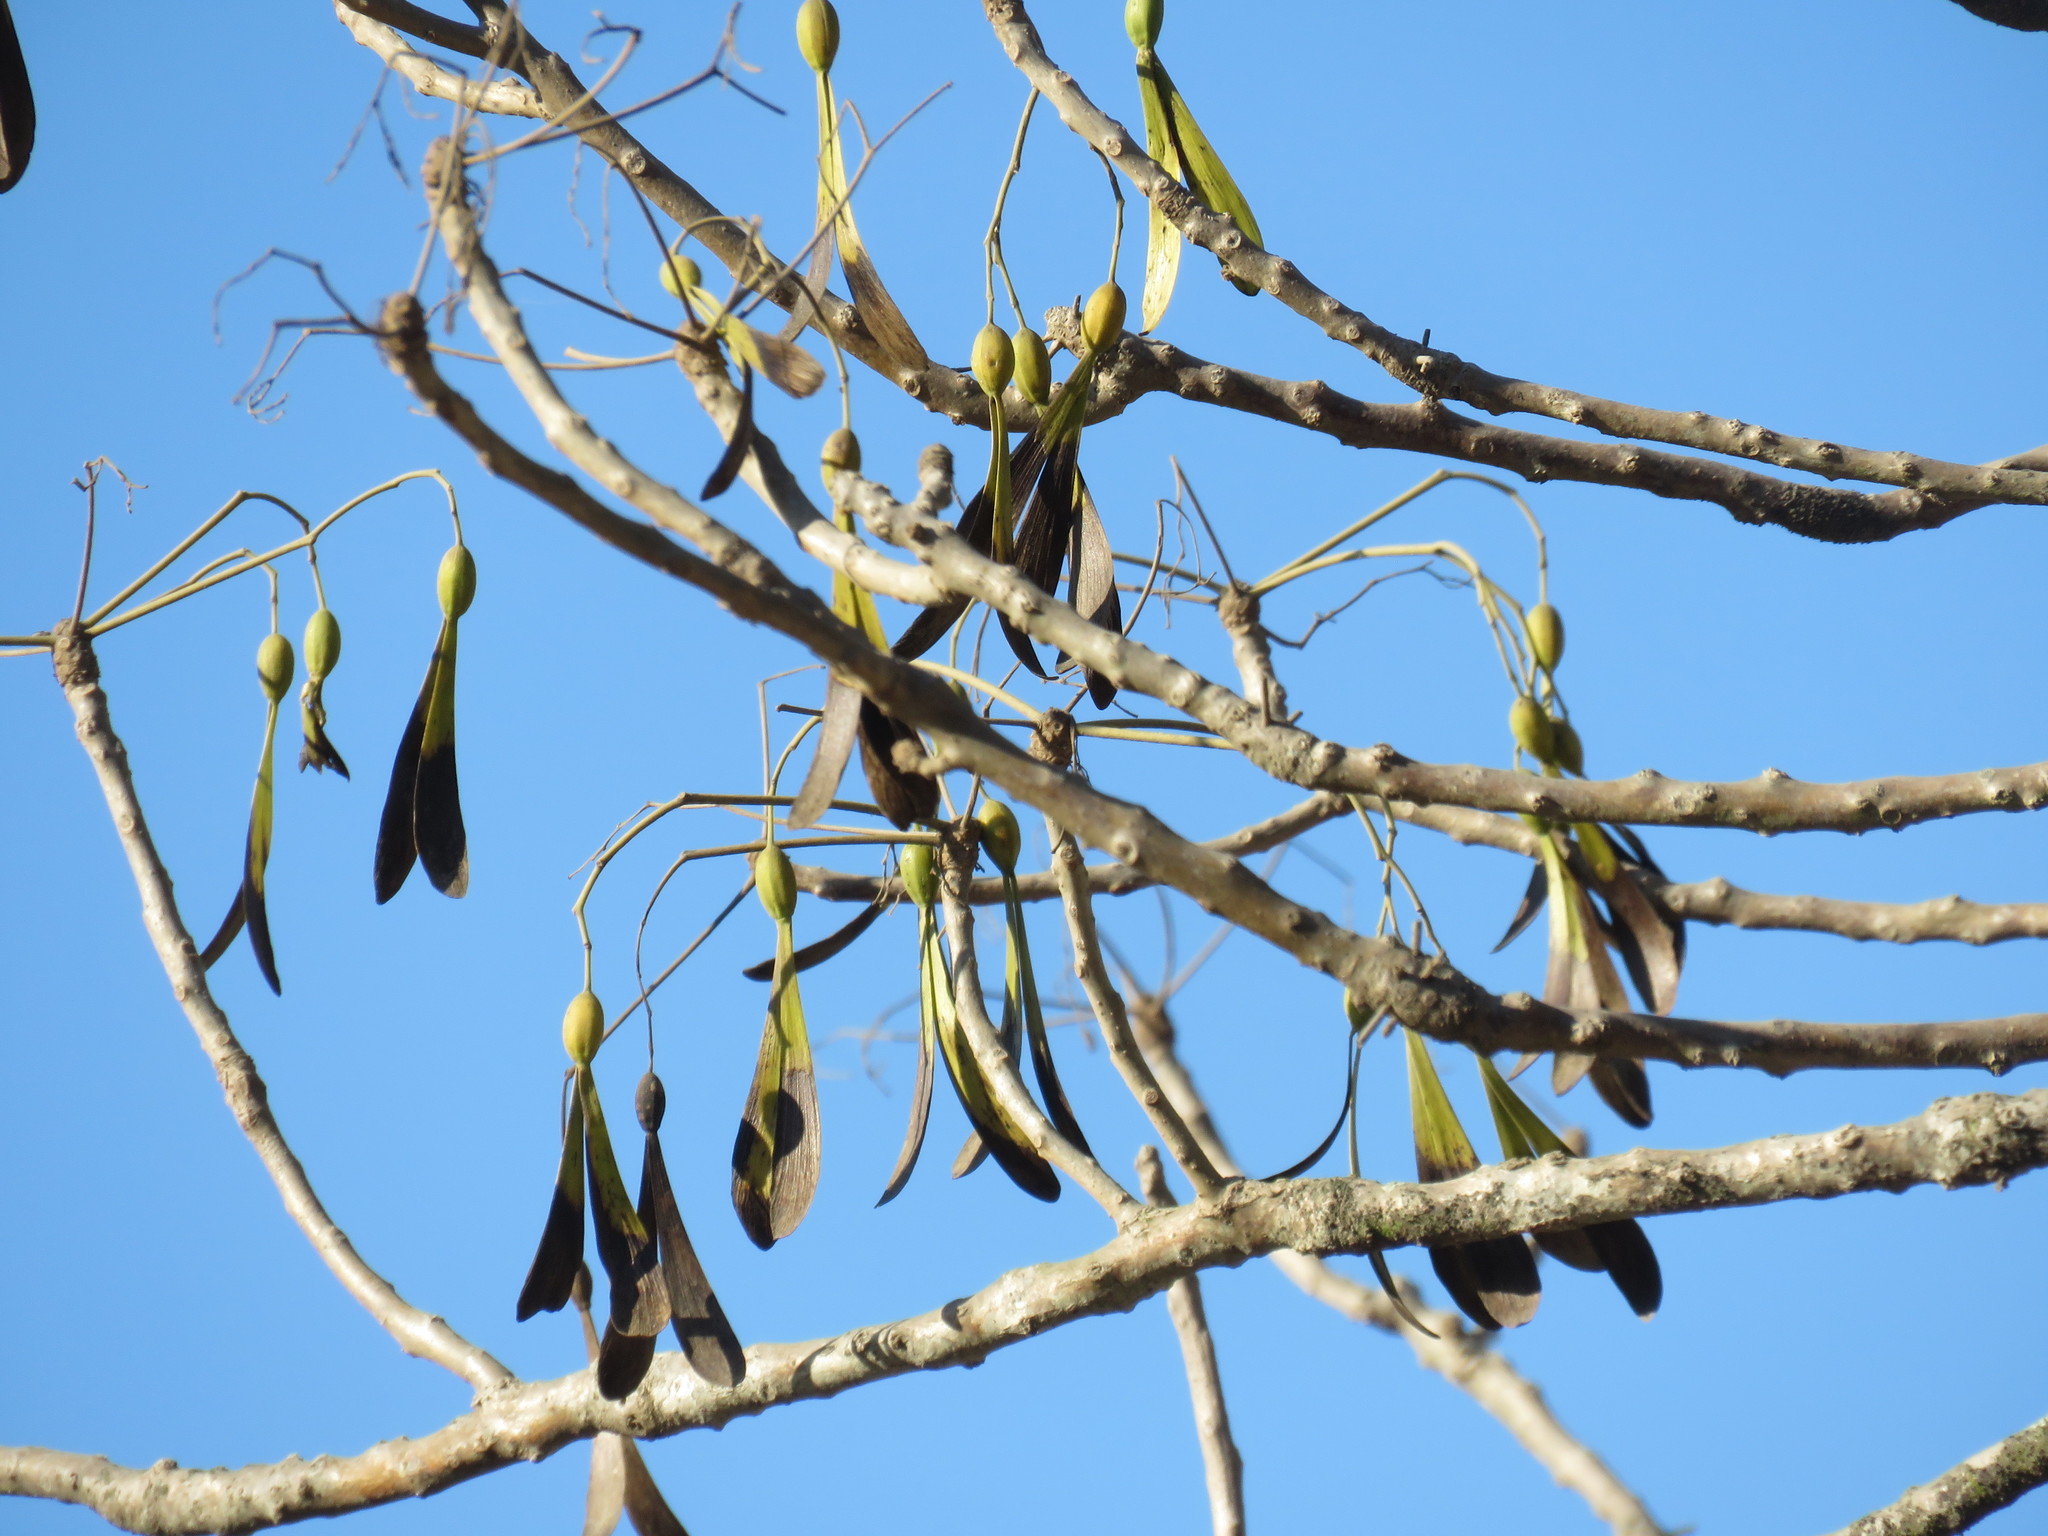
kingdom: Plantae
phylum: Tracheophyta
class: Magnoliopsida
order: Laurales
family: Hernandiaceae
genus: Gyrocarpus
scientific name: Gyrocarpus jatrophifolius
